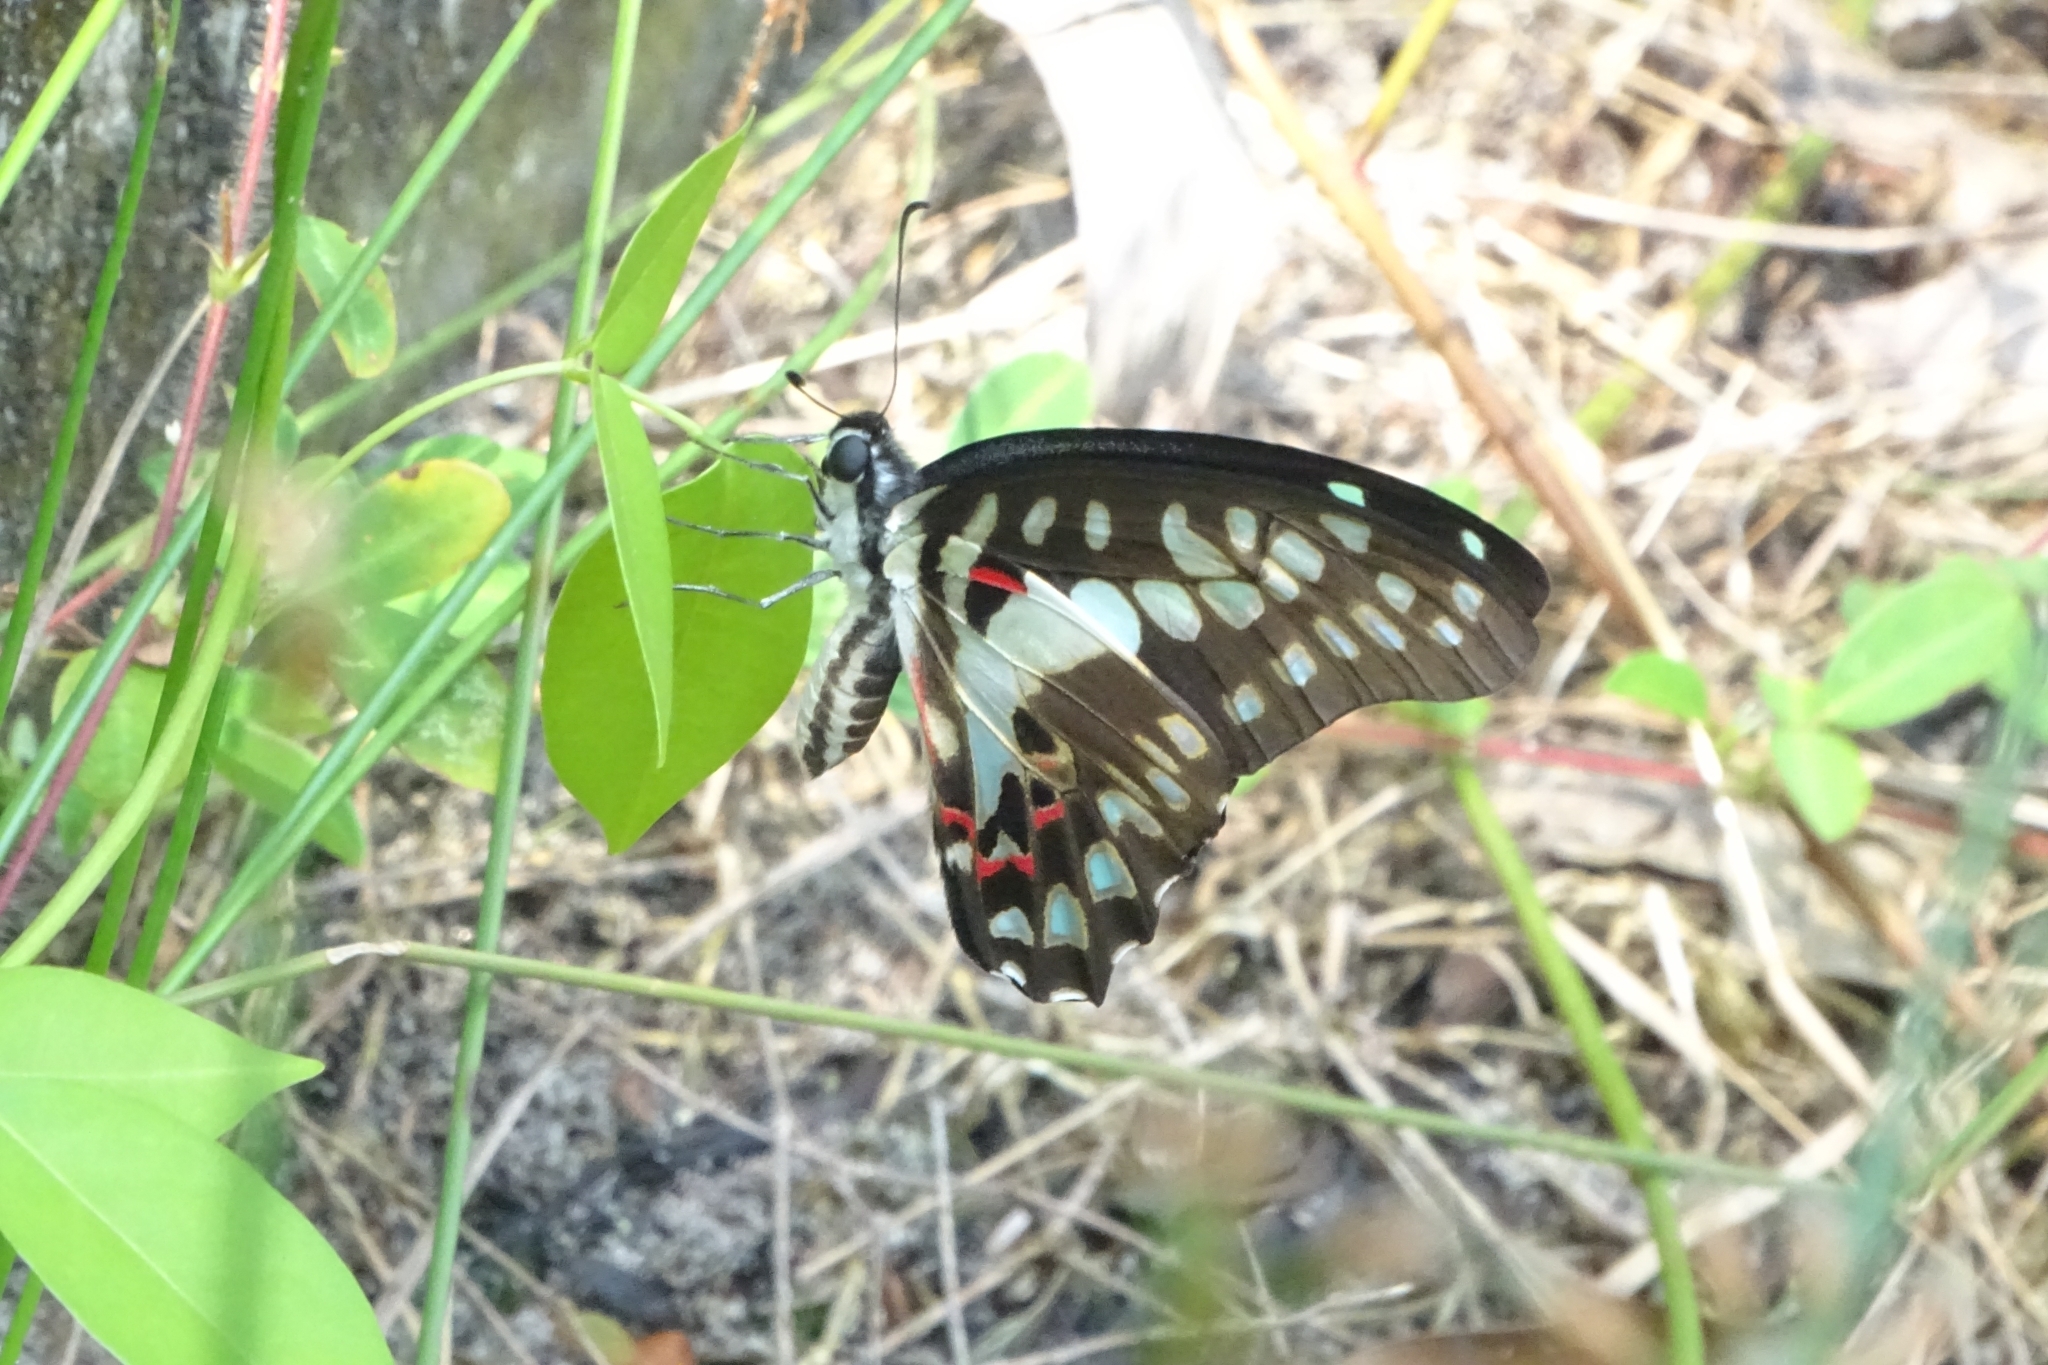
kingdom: Animalia
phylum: Arthropoda
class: Insecta
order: Lepidoptera
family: Papilionidae
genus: Graphium
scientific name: Graphium doson
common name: Common jay
